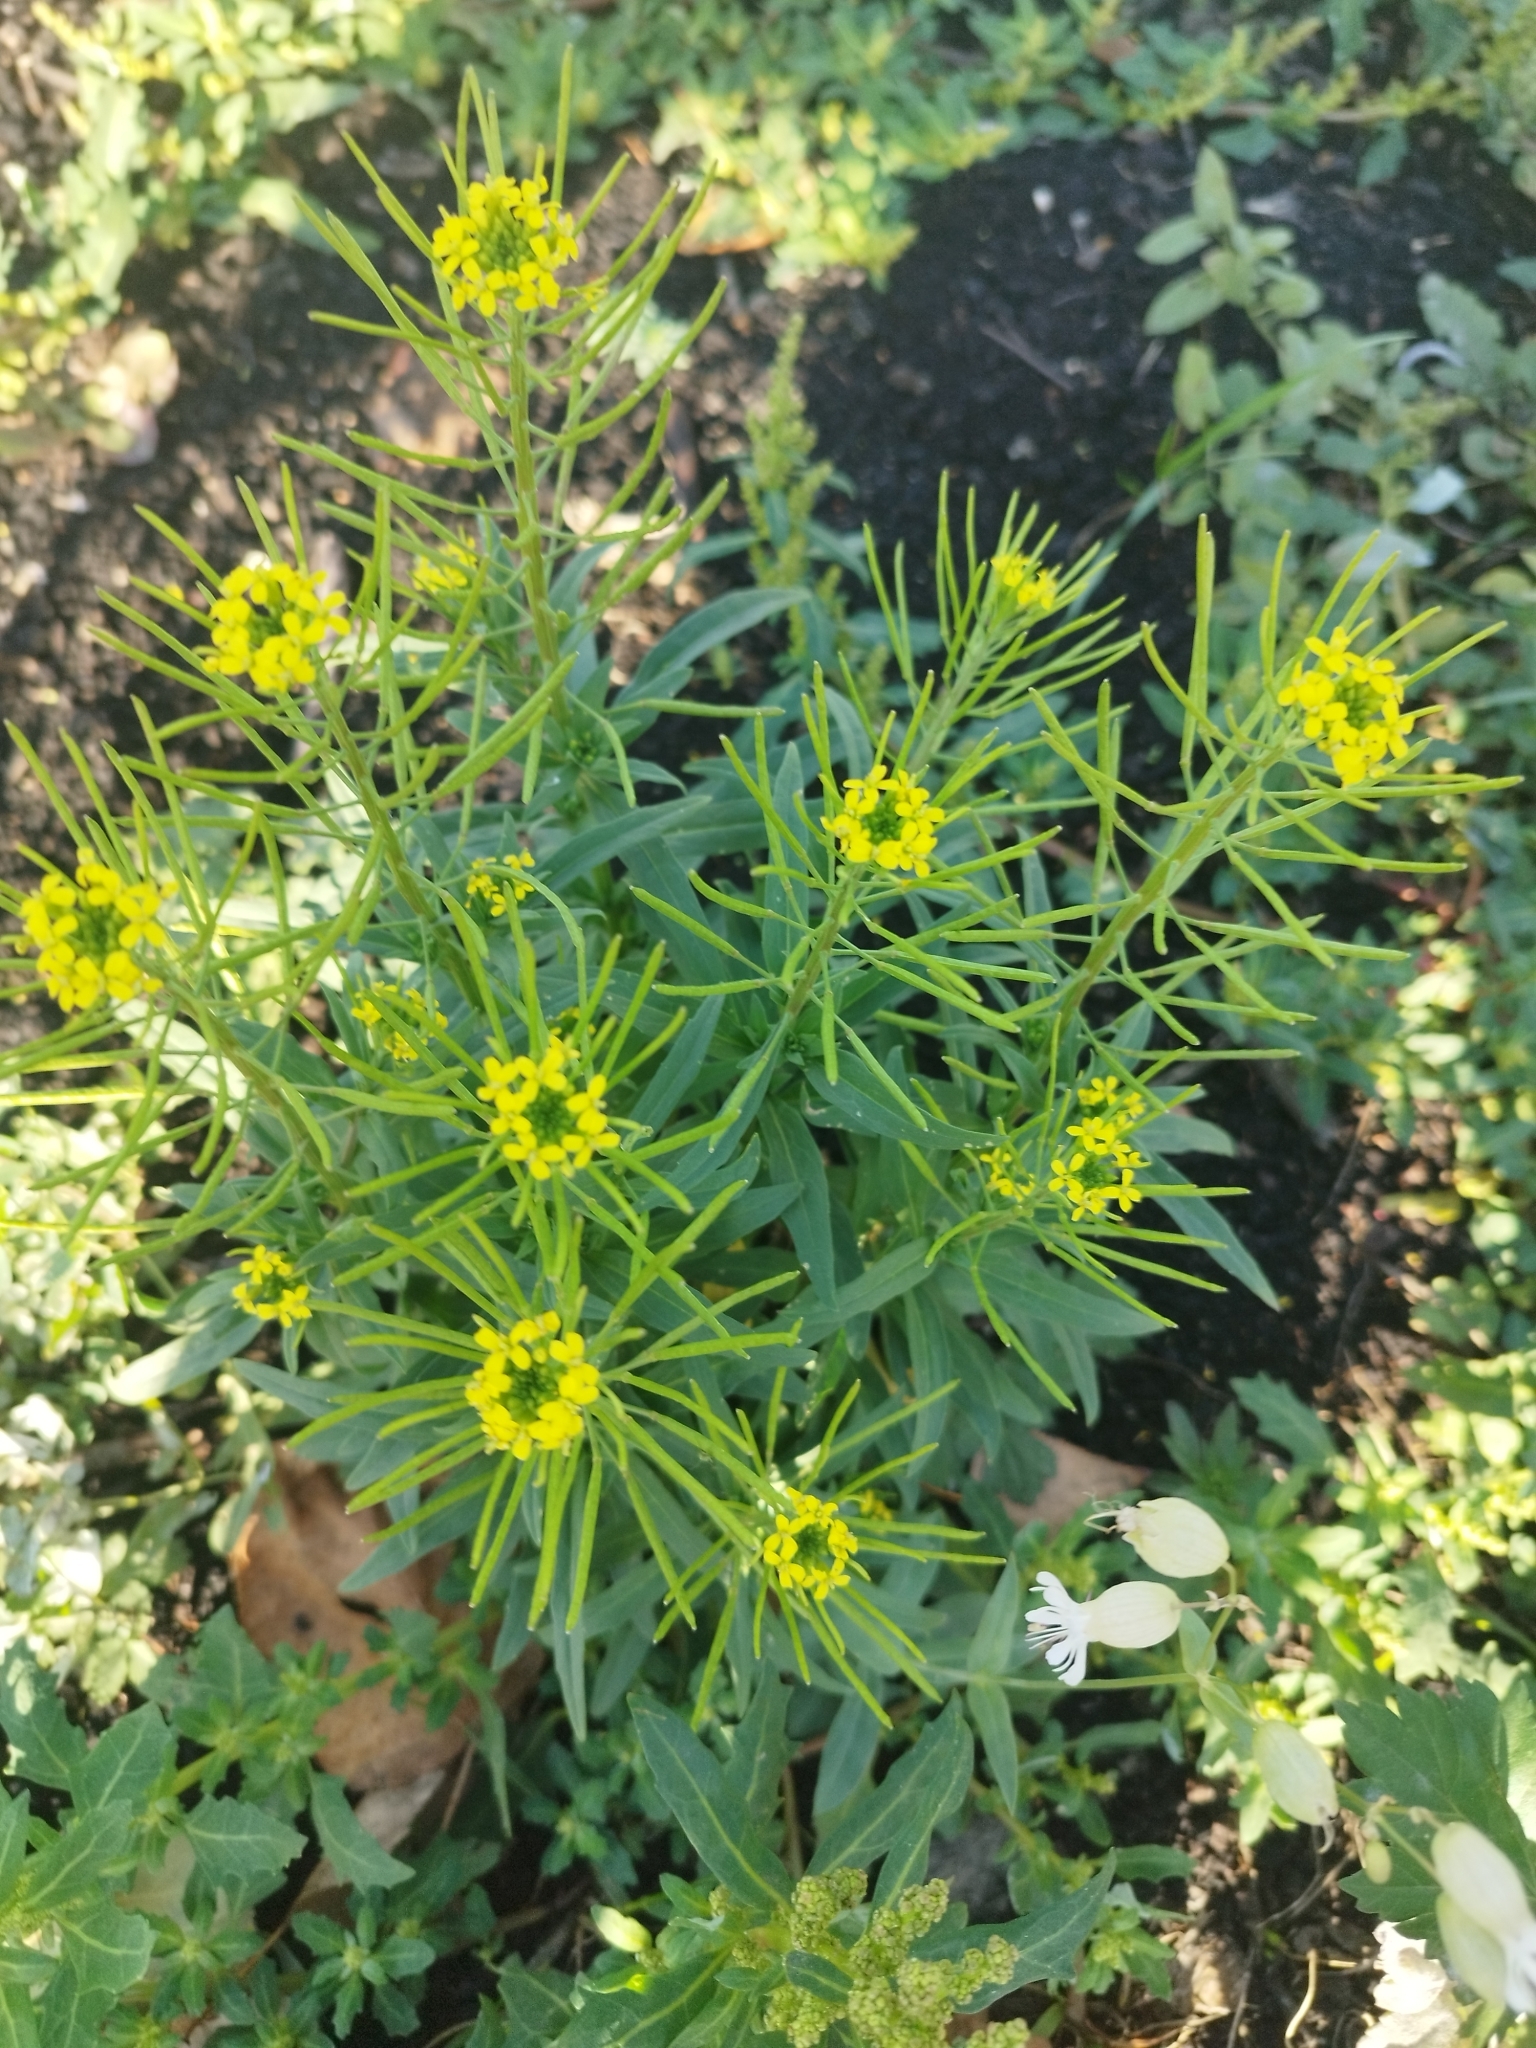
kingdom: Plantae
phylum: Tracheophyta
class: Magnoliopsida
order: Brassicales
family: Brassicaceae
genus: Erysimum
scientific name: Erysimum cheiranthoides
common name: Treacle mustard
